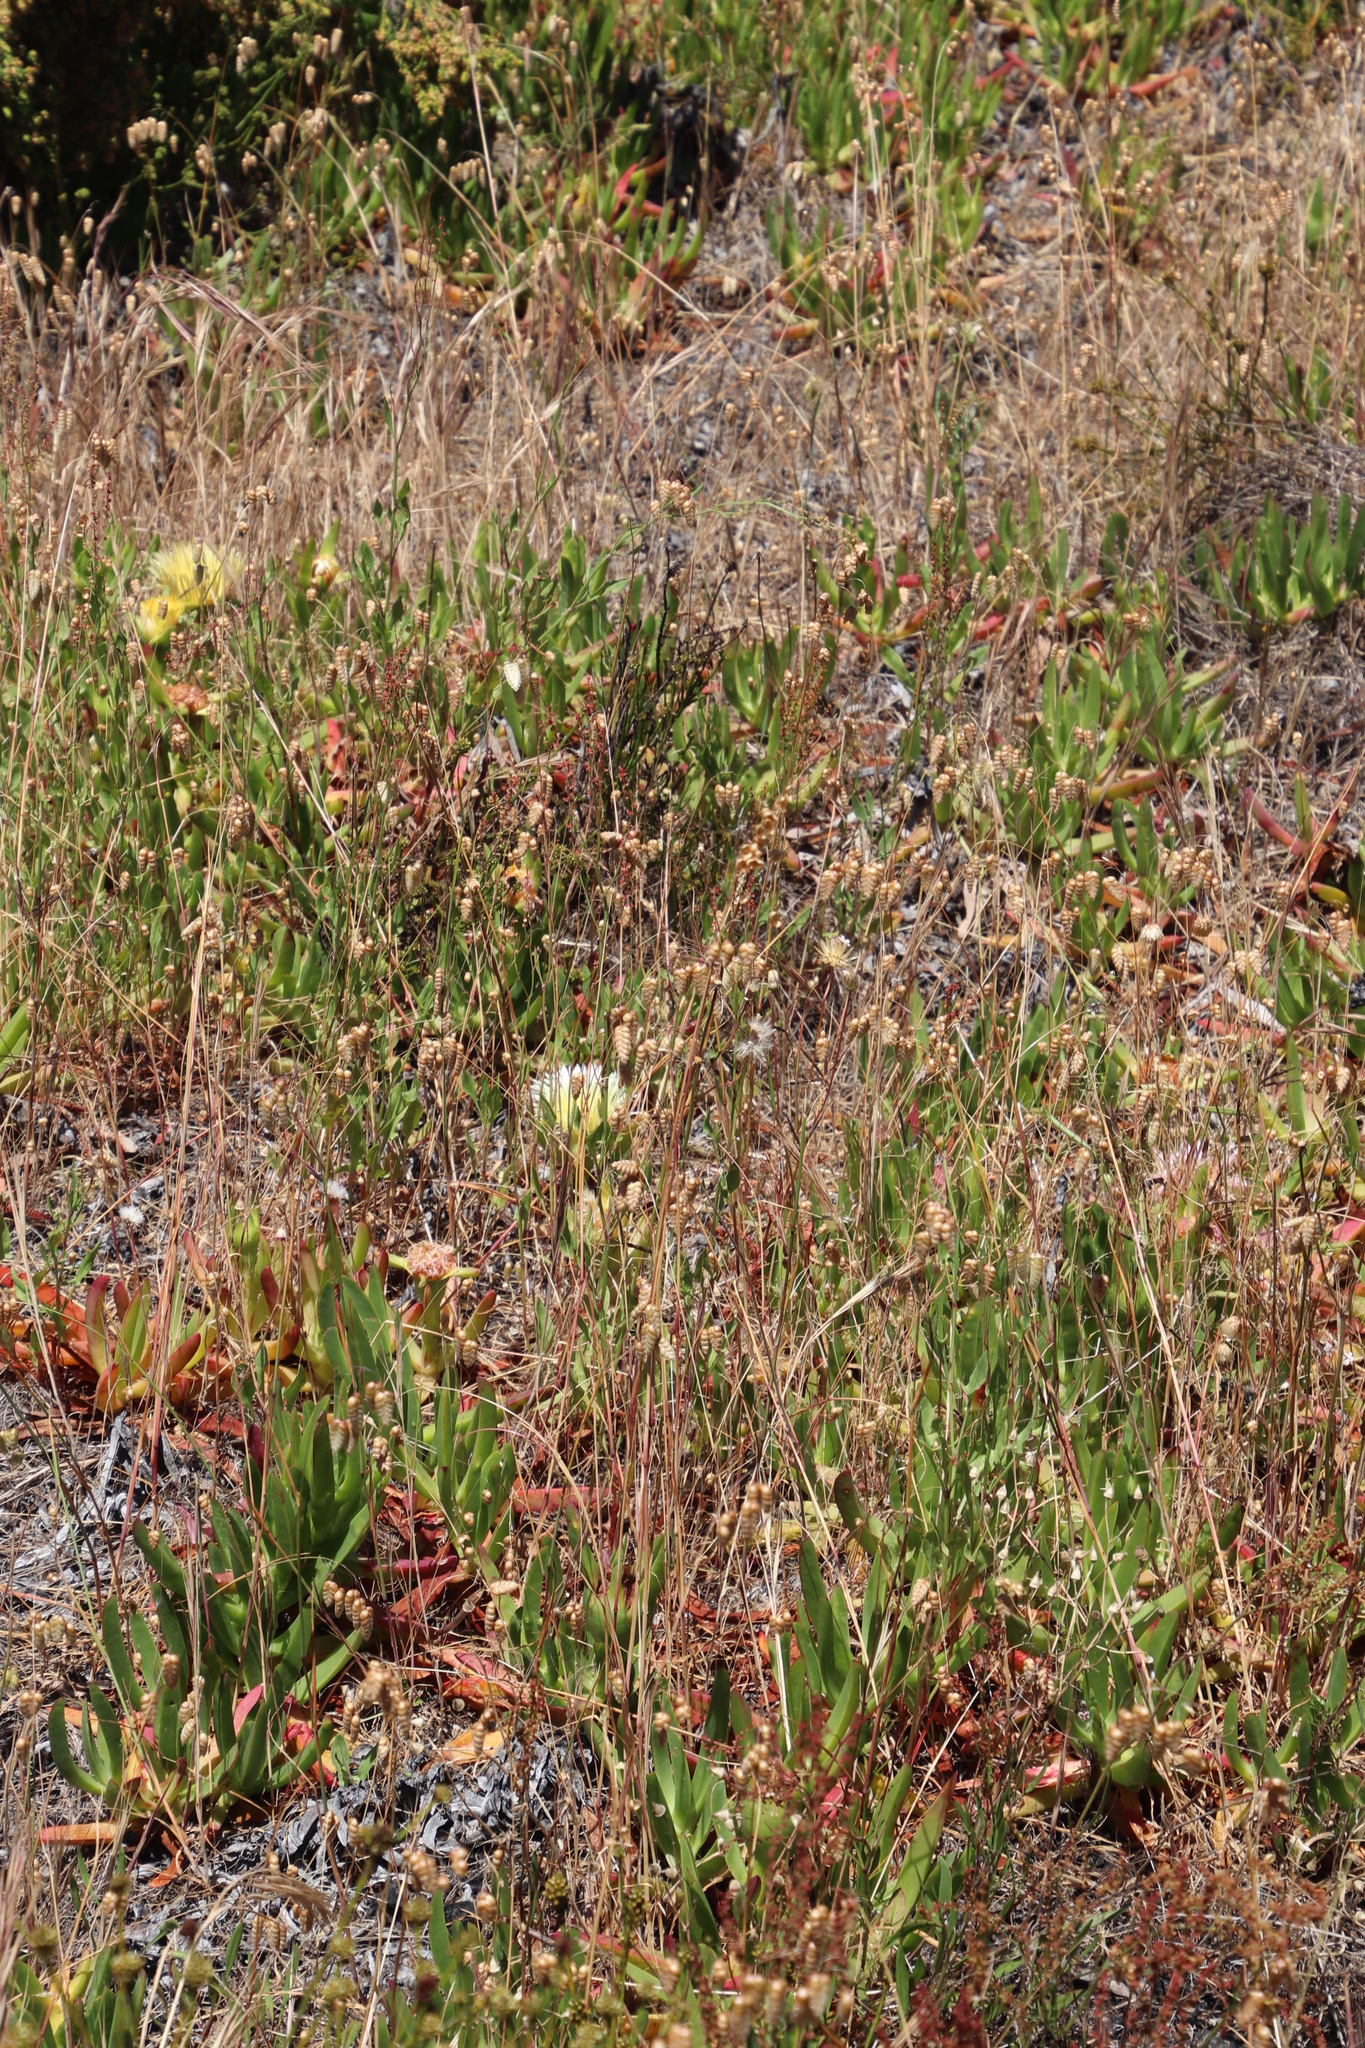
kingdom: Plantae
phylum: Tracheophyta
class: Liliopsida
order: Poales
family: Poaceae
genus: Briza
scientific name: Briza maxima
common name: Big quakinggrass
